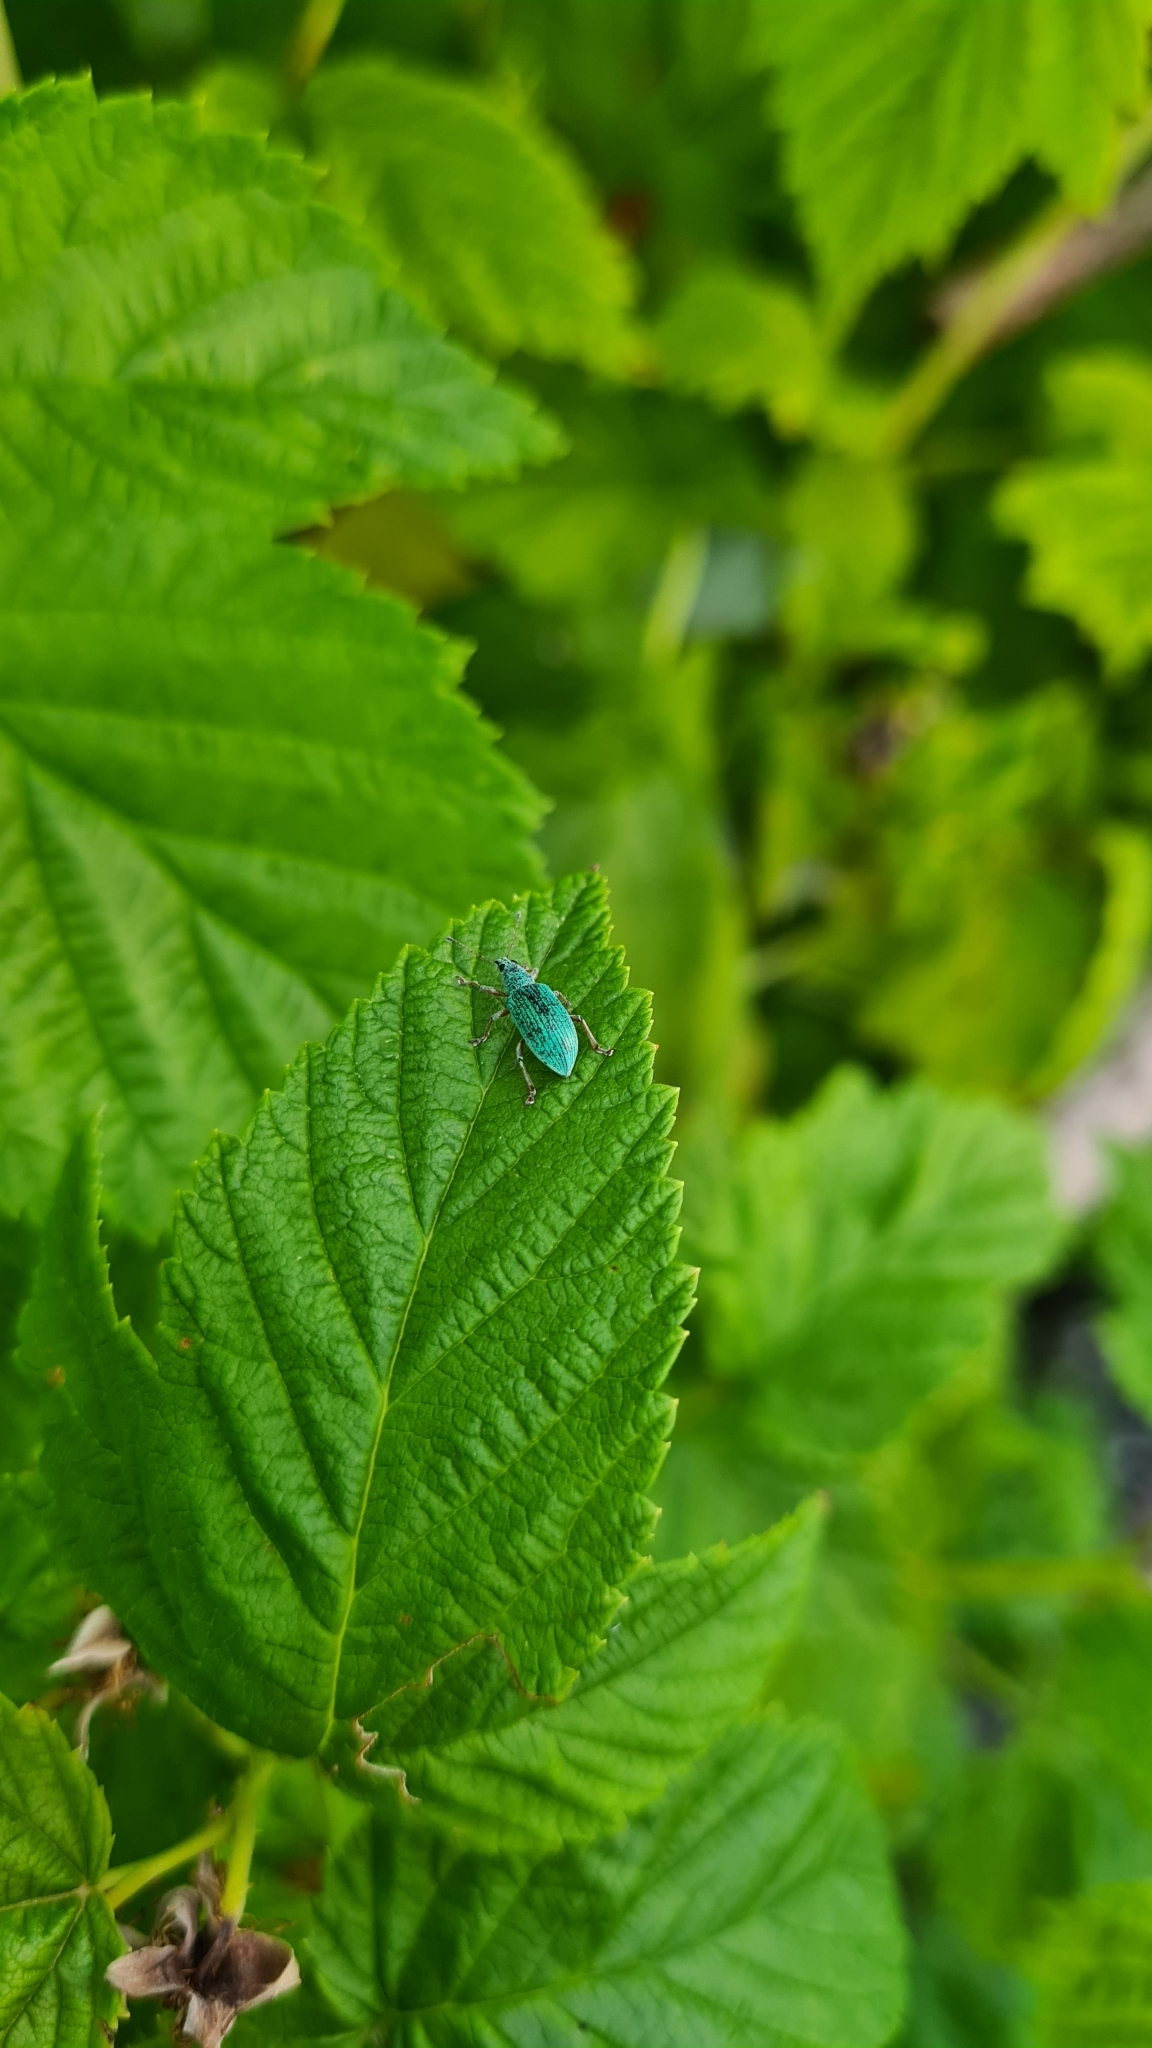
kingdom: Animalia
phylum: Arthropoda
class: Insecta
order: Coleoptera
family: Curculionidae
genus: Polydrusus
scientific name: Polydrusus formosus
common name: Weevil
